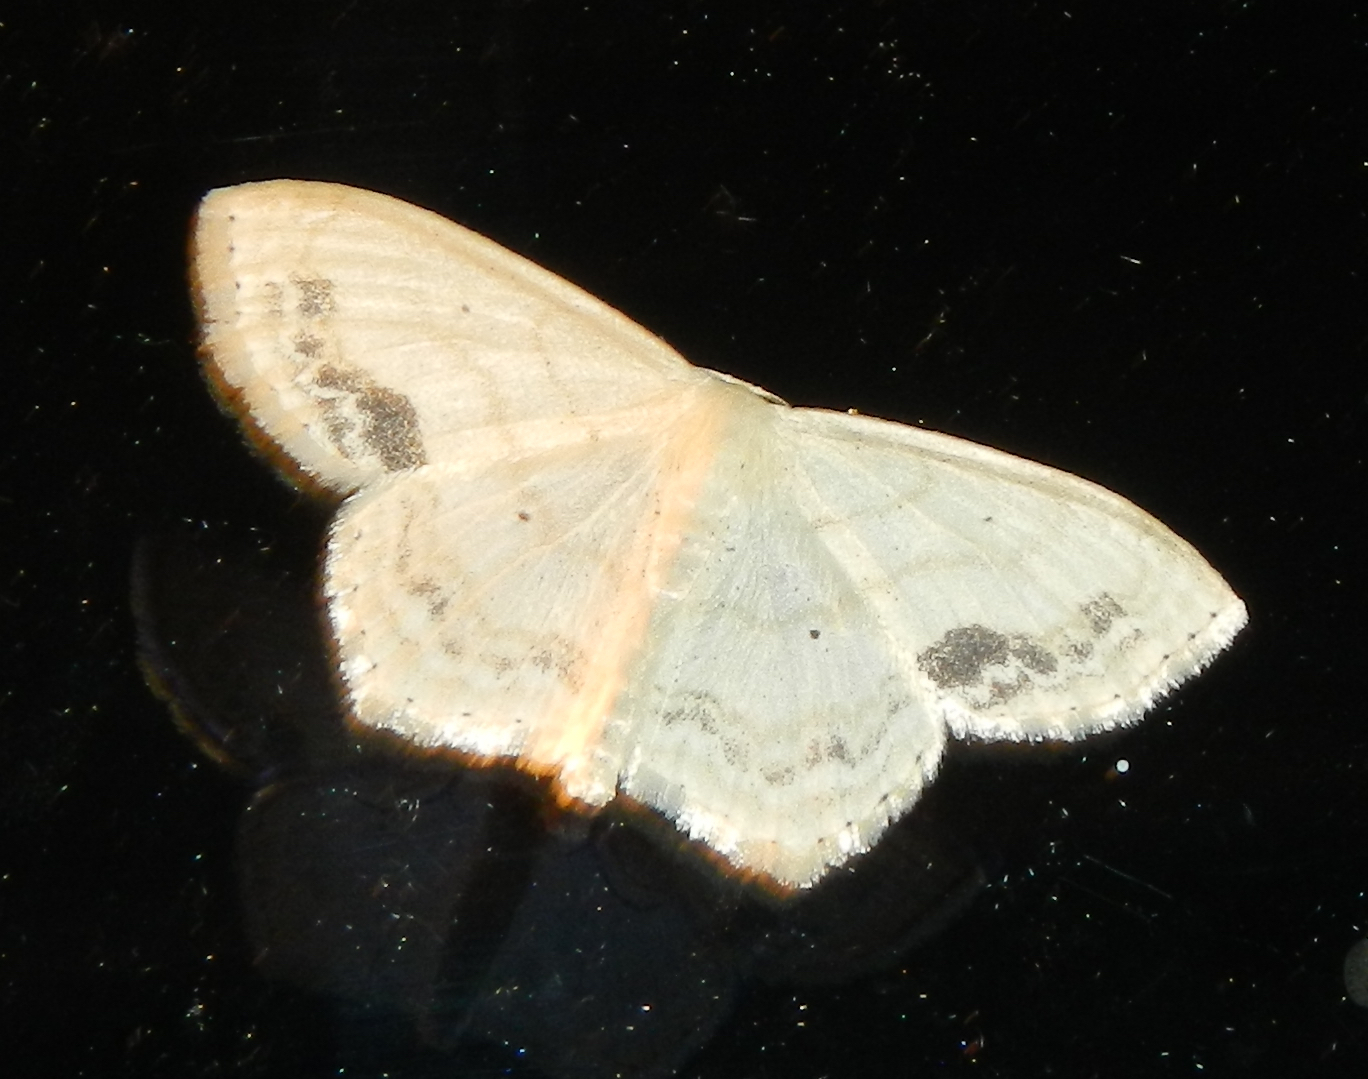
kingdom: Animalia
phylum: Arthropoda
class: Insecta
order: Lepidoptera
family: Geometridae
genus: Scopula
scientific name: Scopula limboundata
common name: Large lace border
